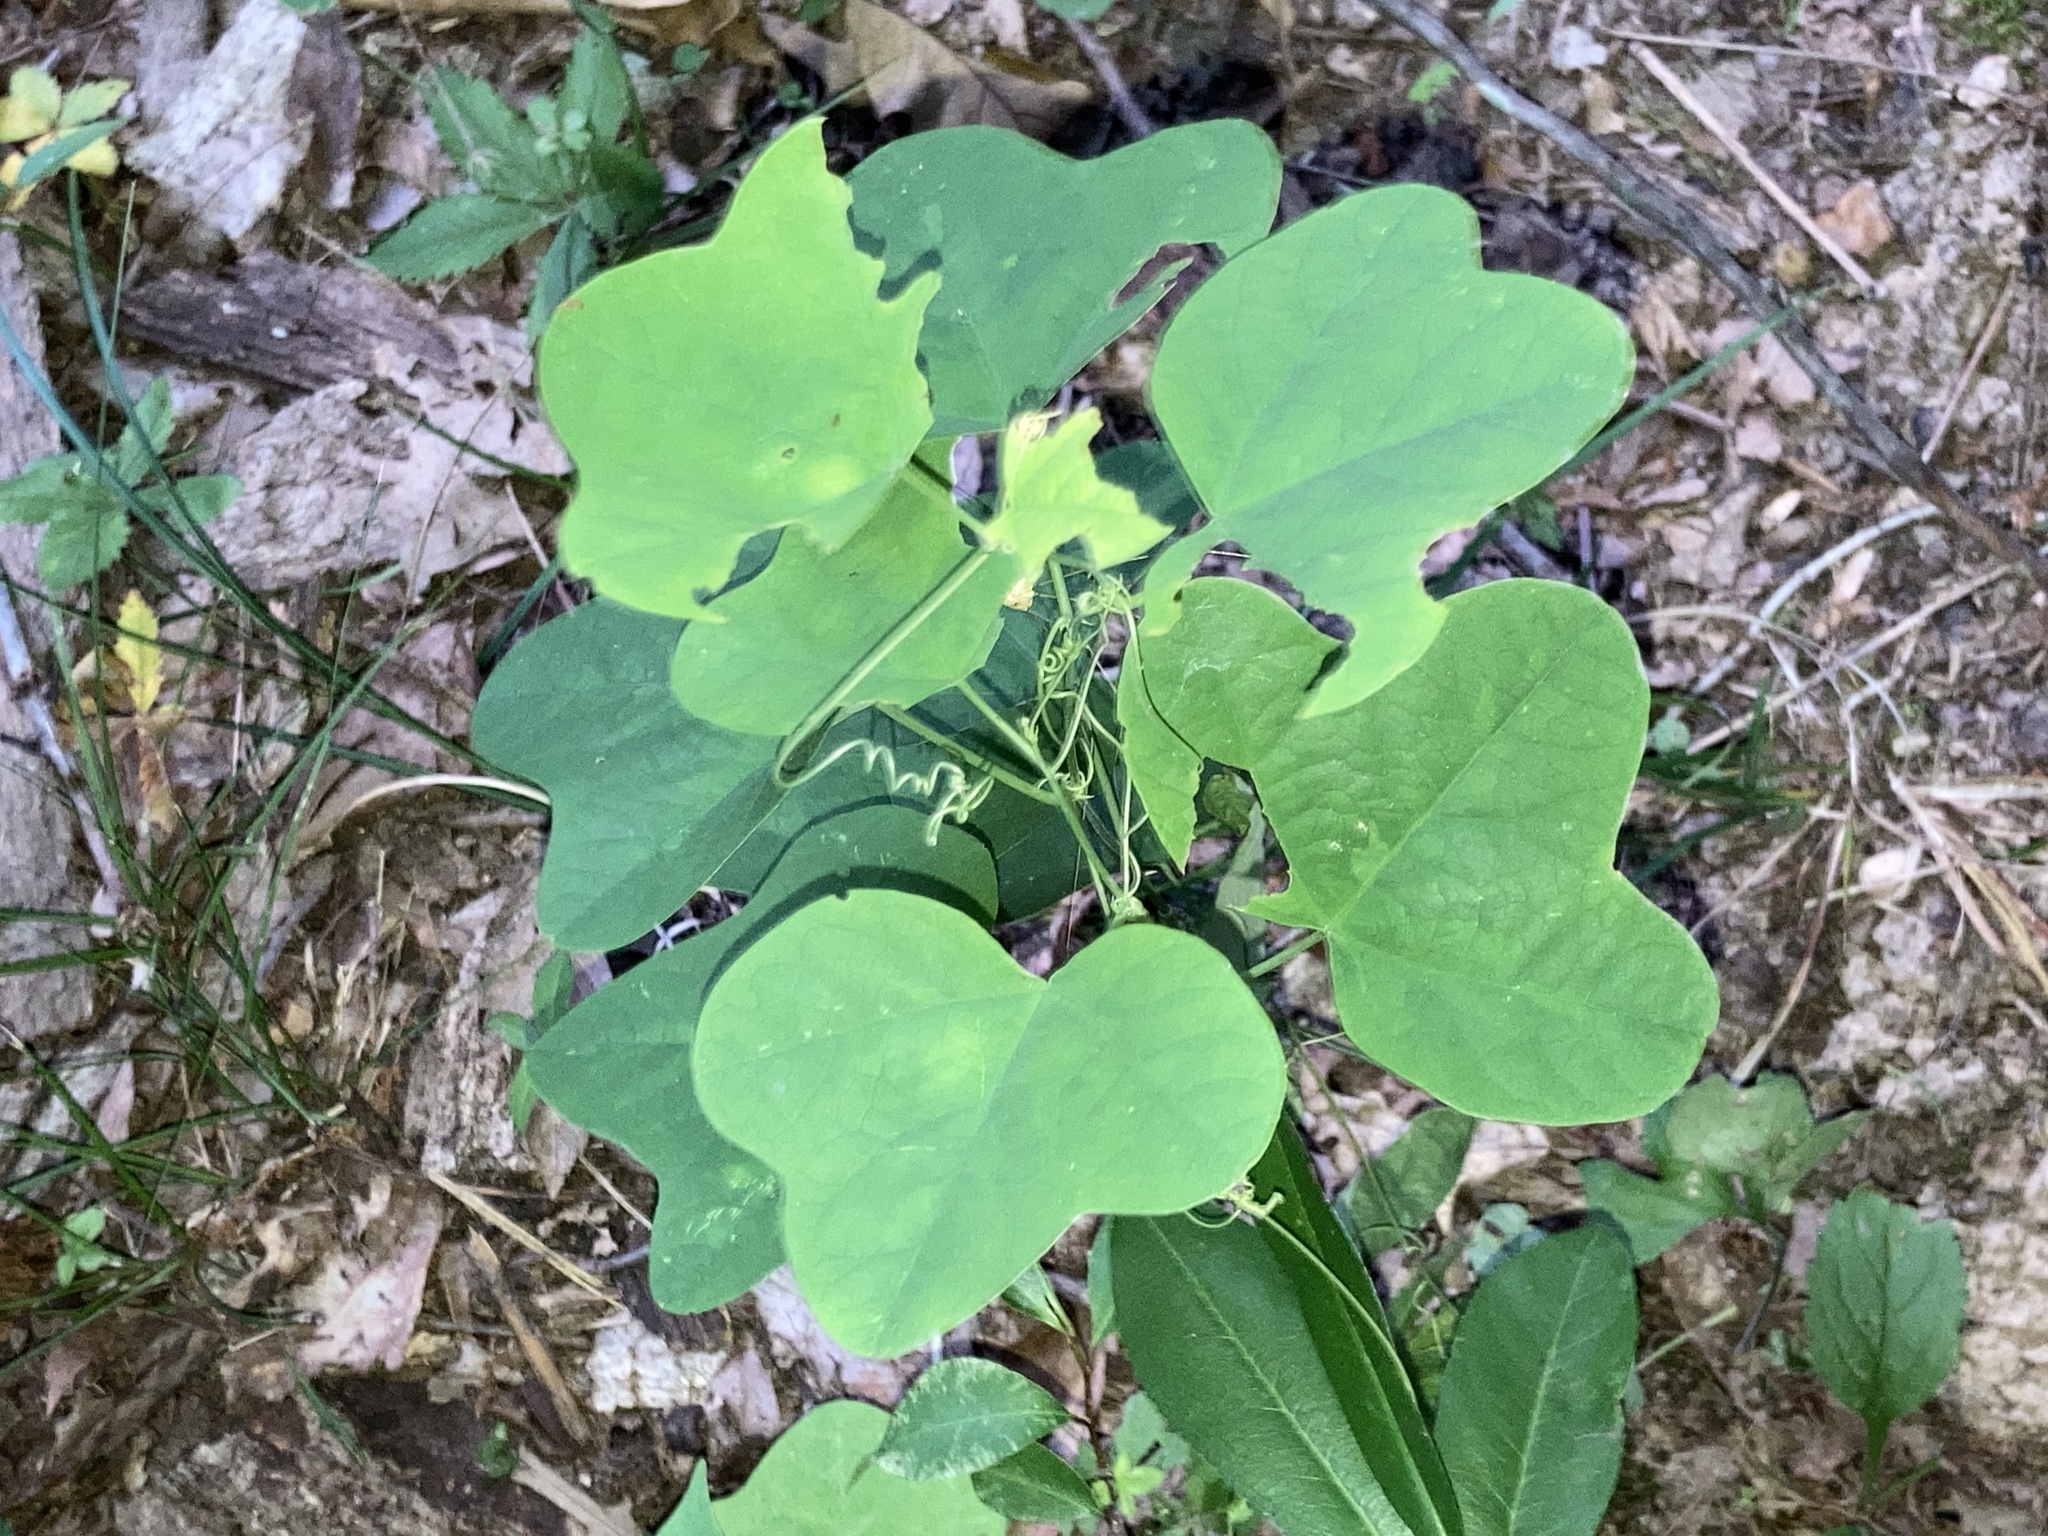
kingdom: Plantae
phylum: Tracheophyta
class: Magnoliopsida
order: Malpighiales
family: Passifloraceae
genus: Passiflora
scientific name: Passiflora lutea
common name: Yellow passionflower
